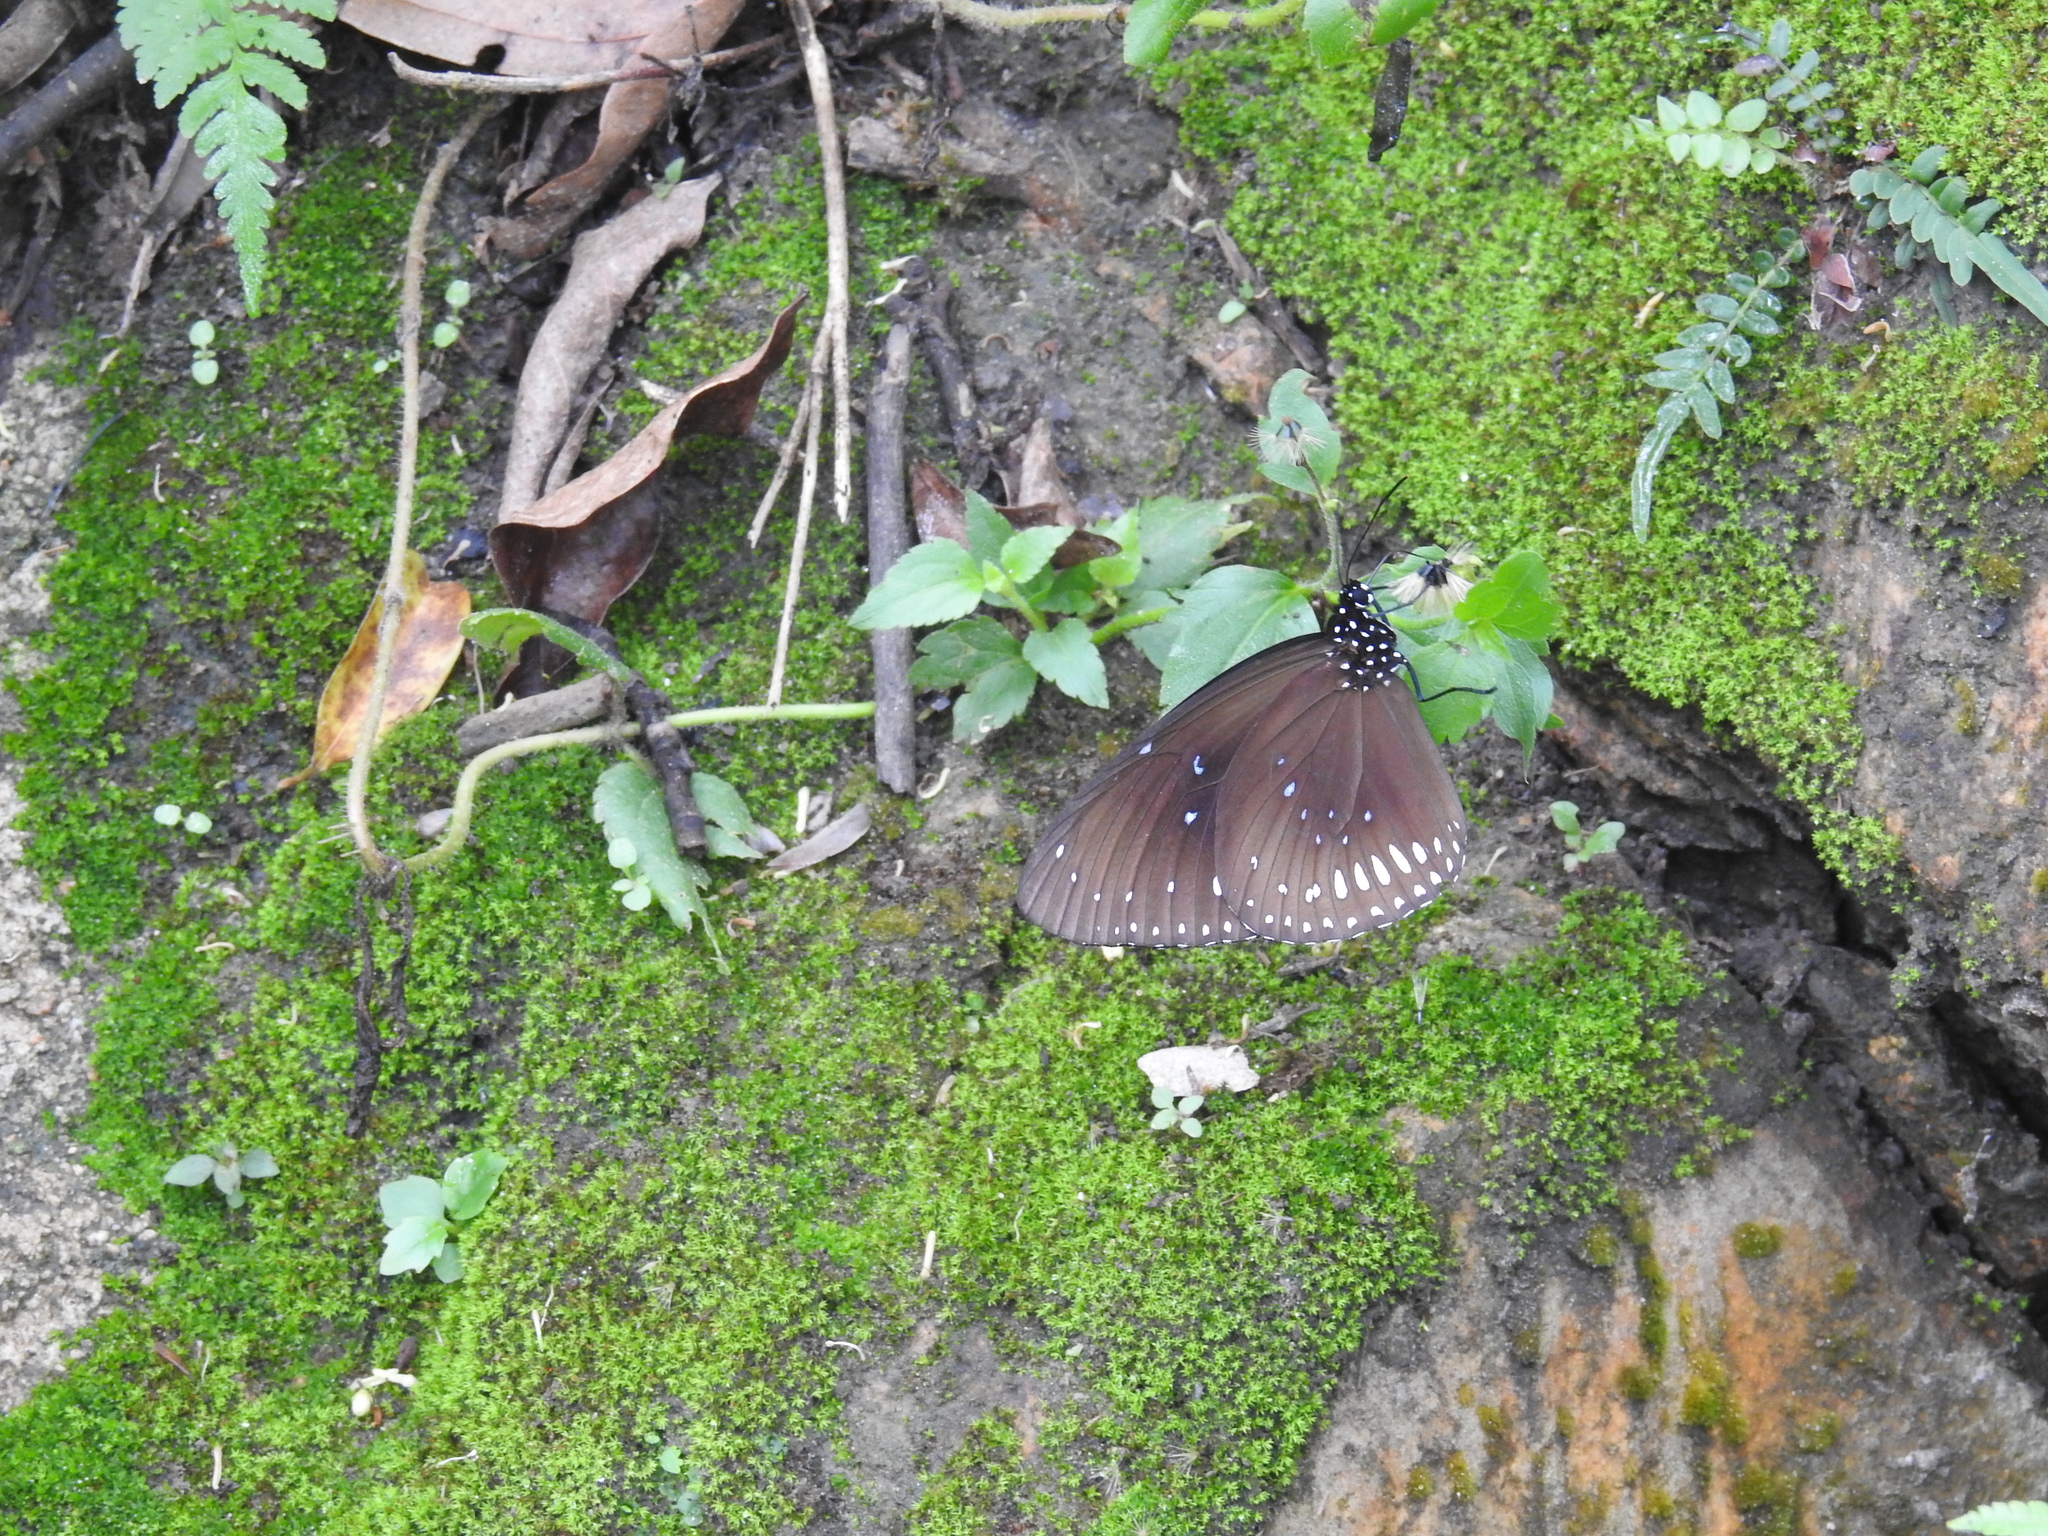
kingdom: Animalia
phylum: Arthropoda
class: Insecta
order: Lepidoptera
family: Nymphalidae
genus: Euploea
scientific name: Euploea midamus
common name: Blue-spotted crow butterfly
